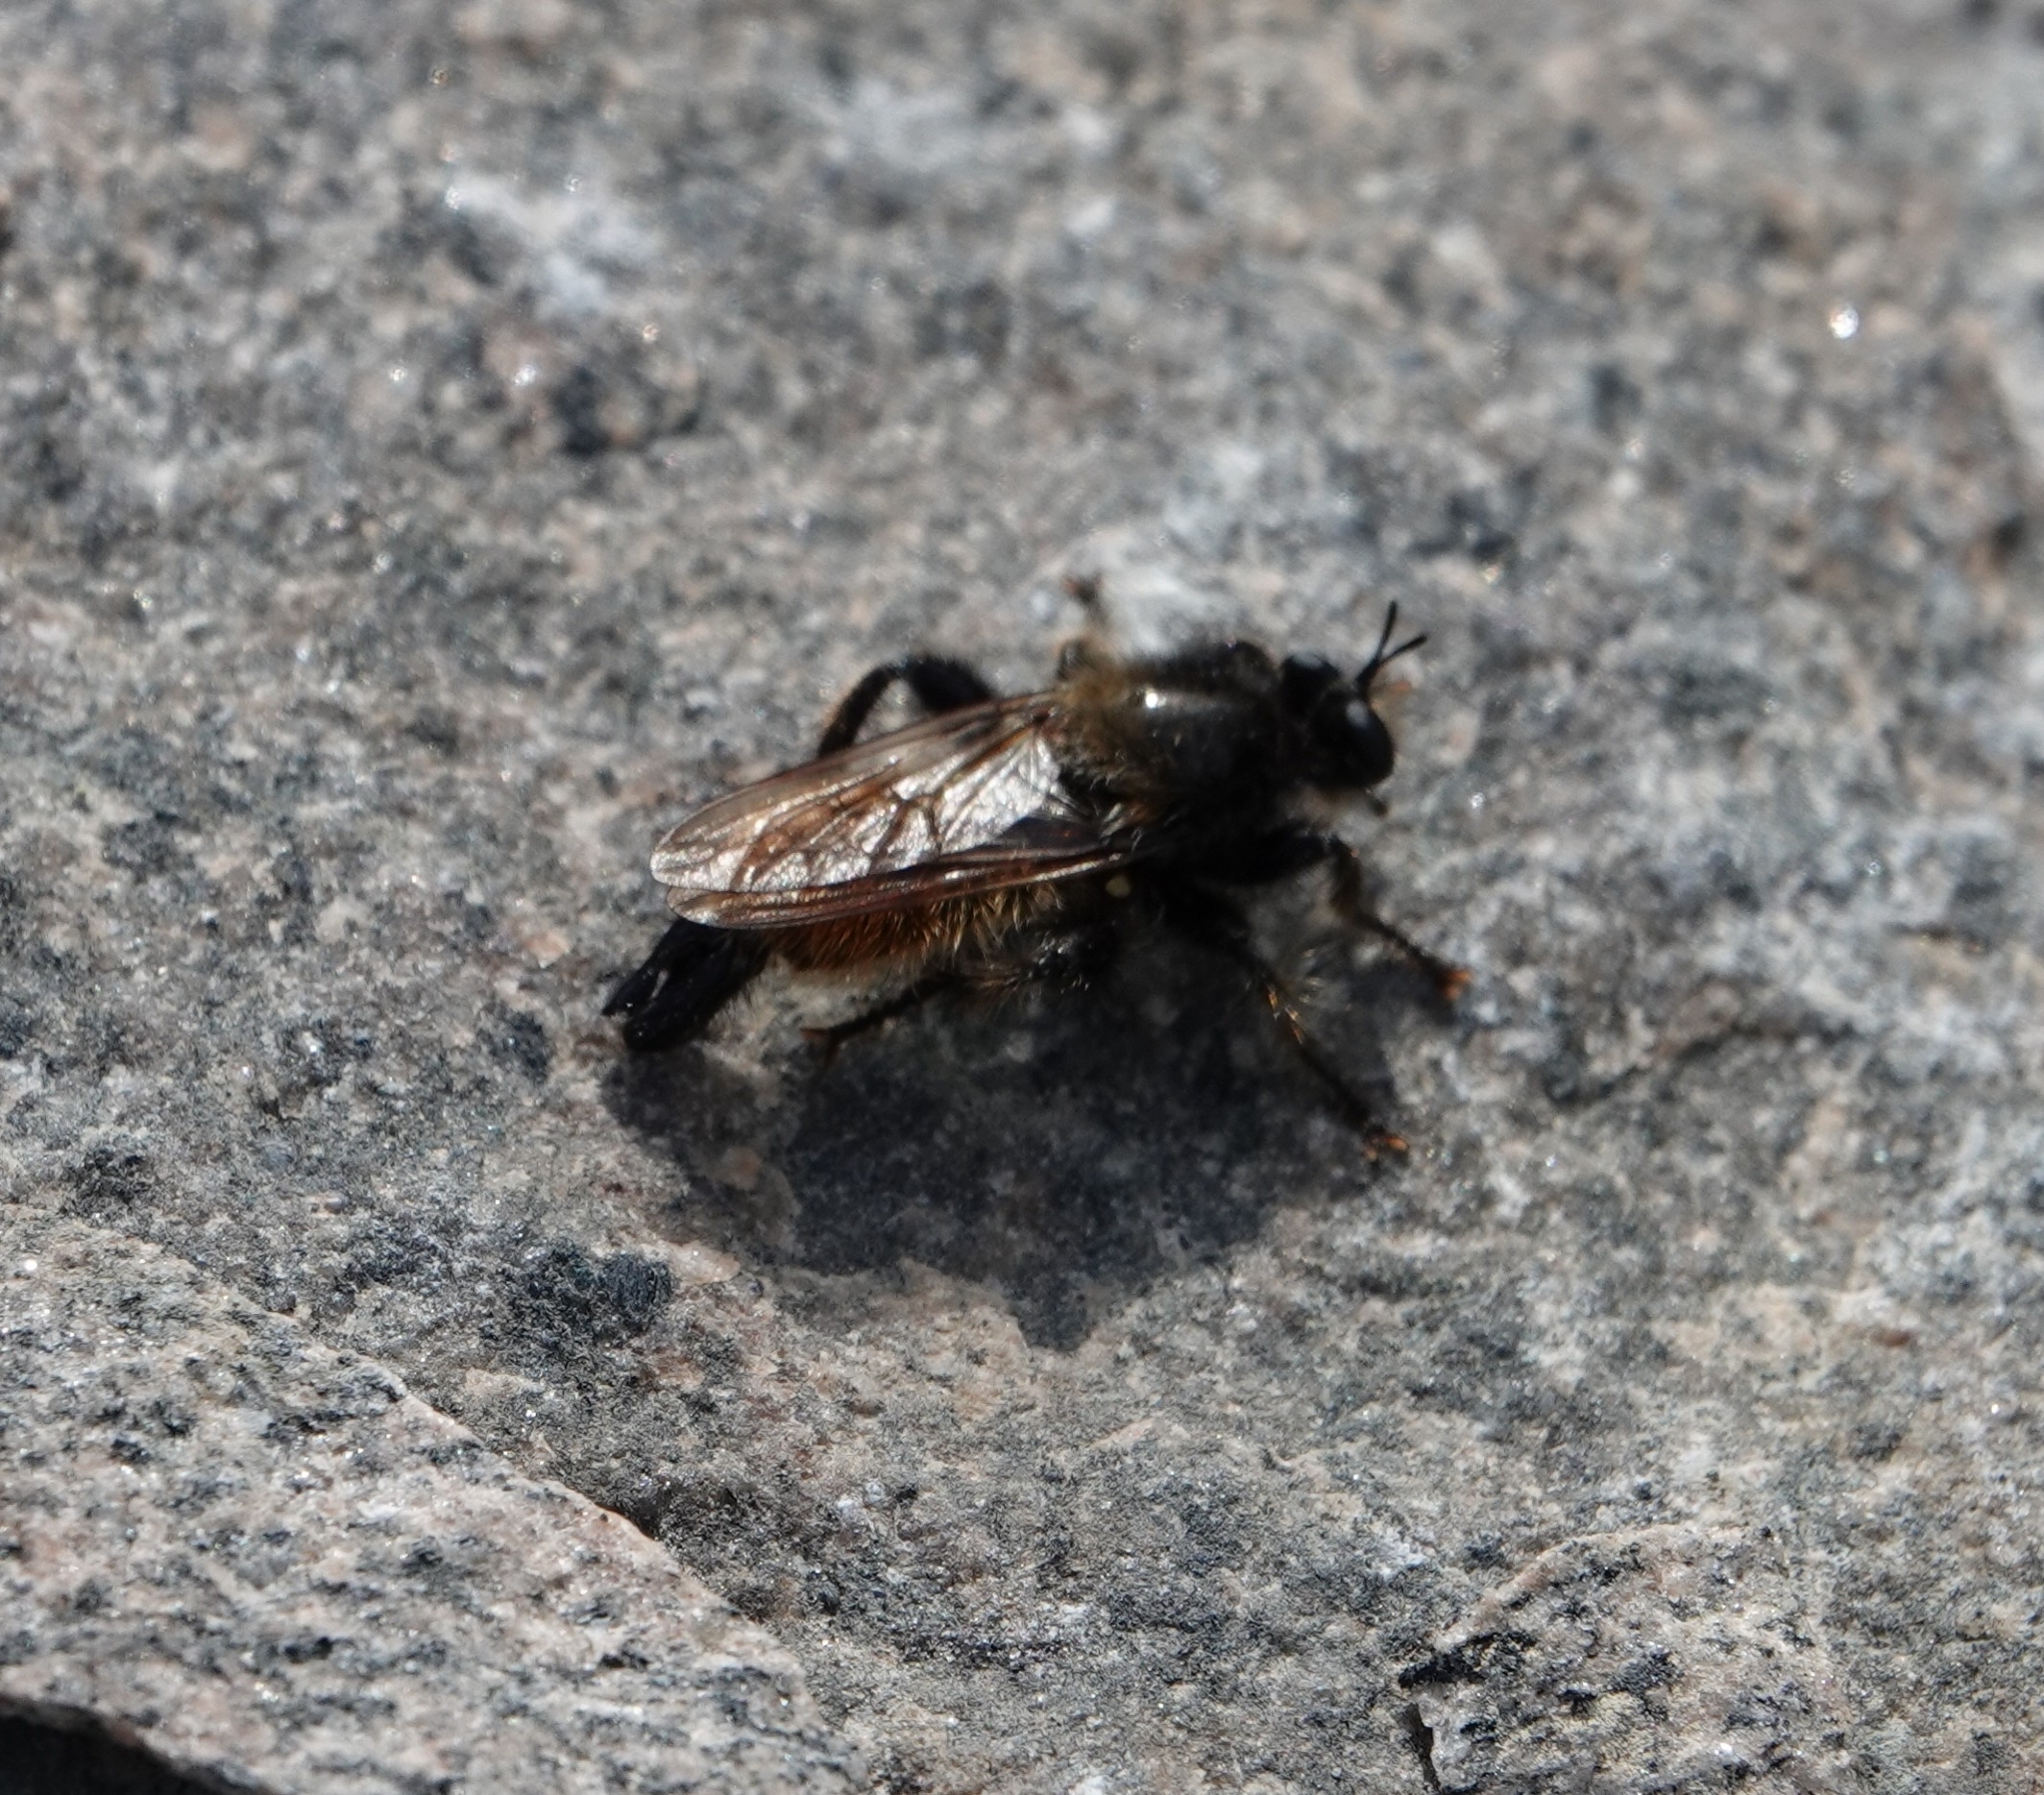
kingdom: Animalia
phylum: Arthropoda
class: Insecta
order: Diptera
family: Asilidae
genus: Laphria
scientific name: Laphria flava
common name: Bumblebee robberfly
